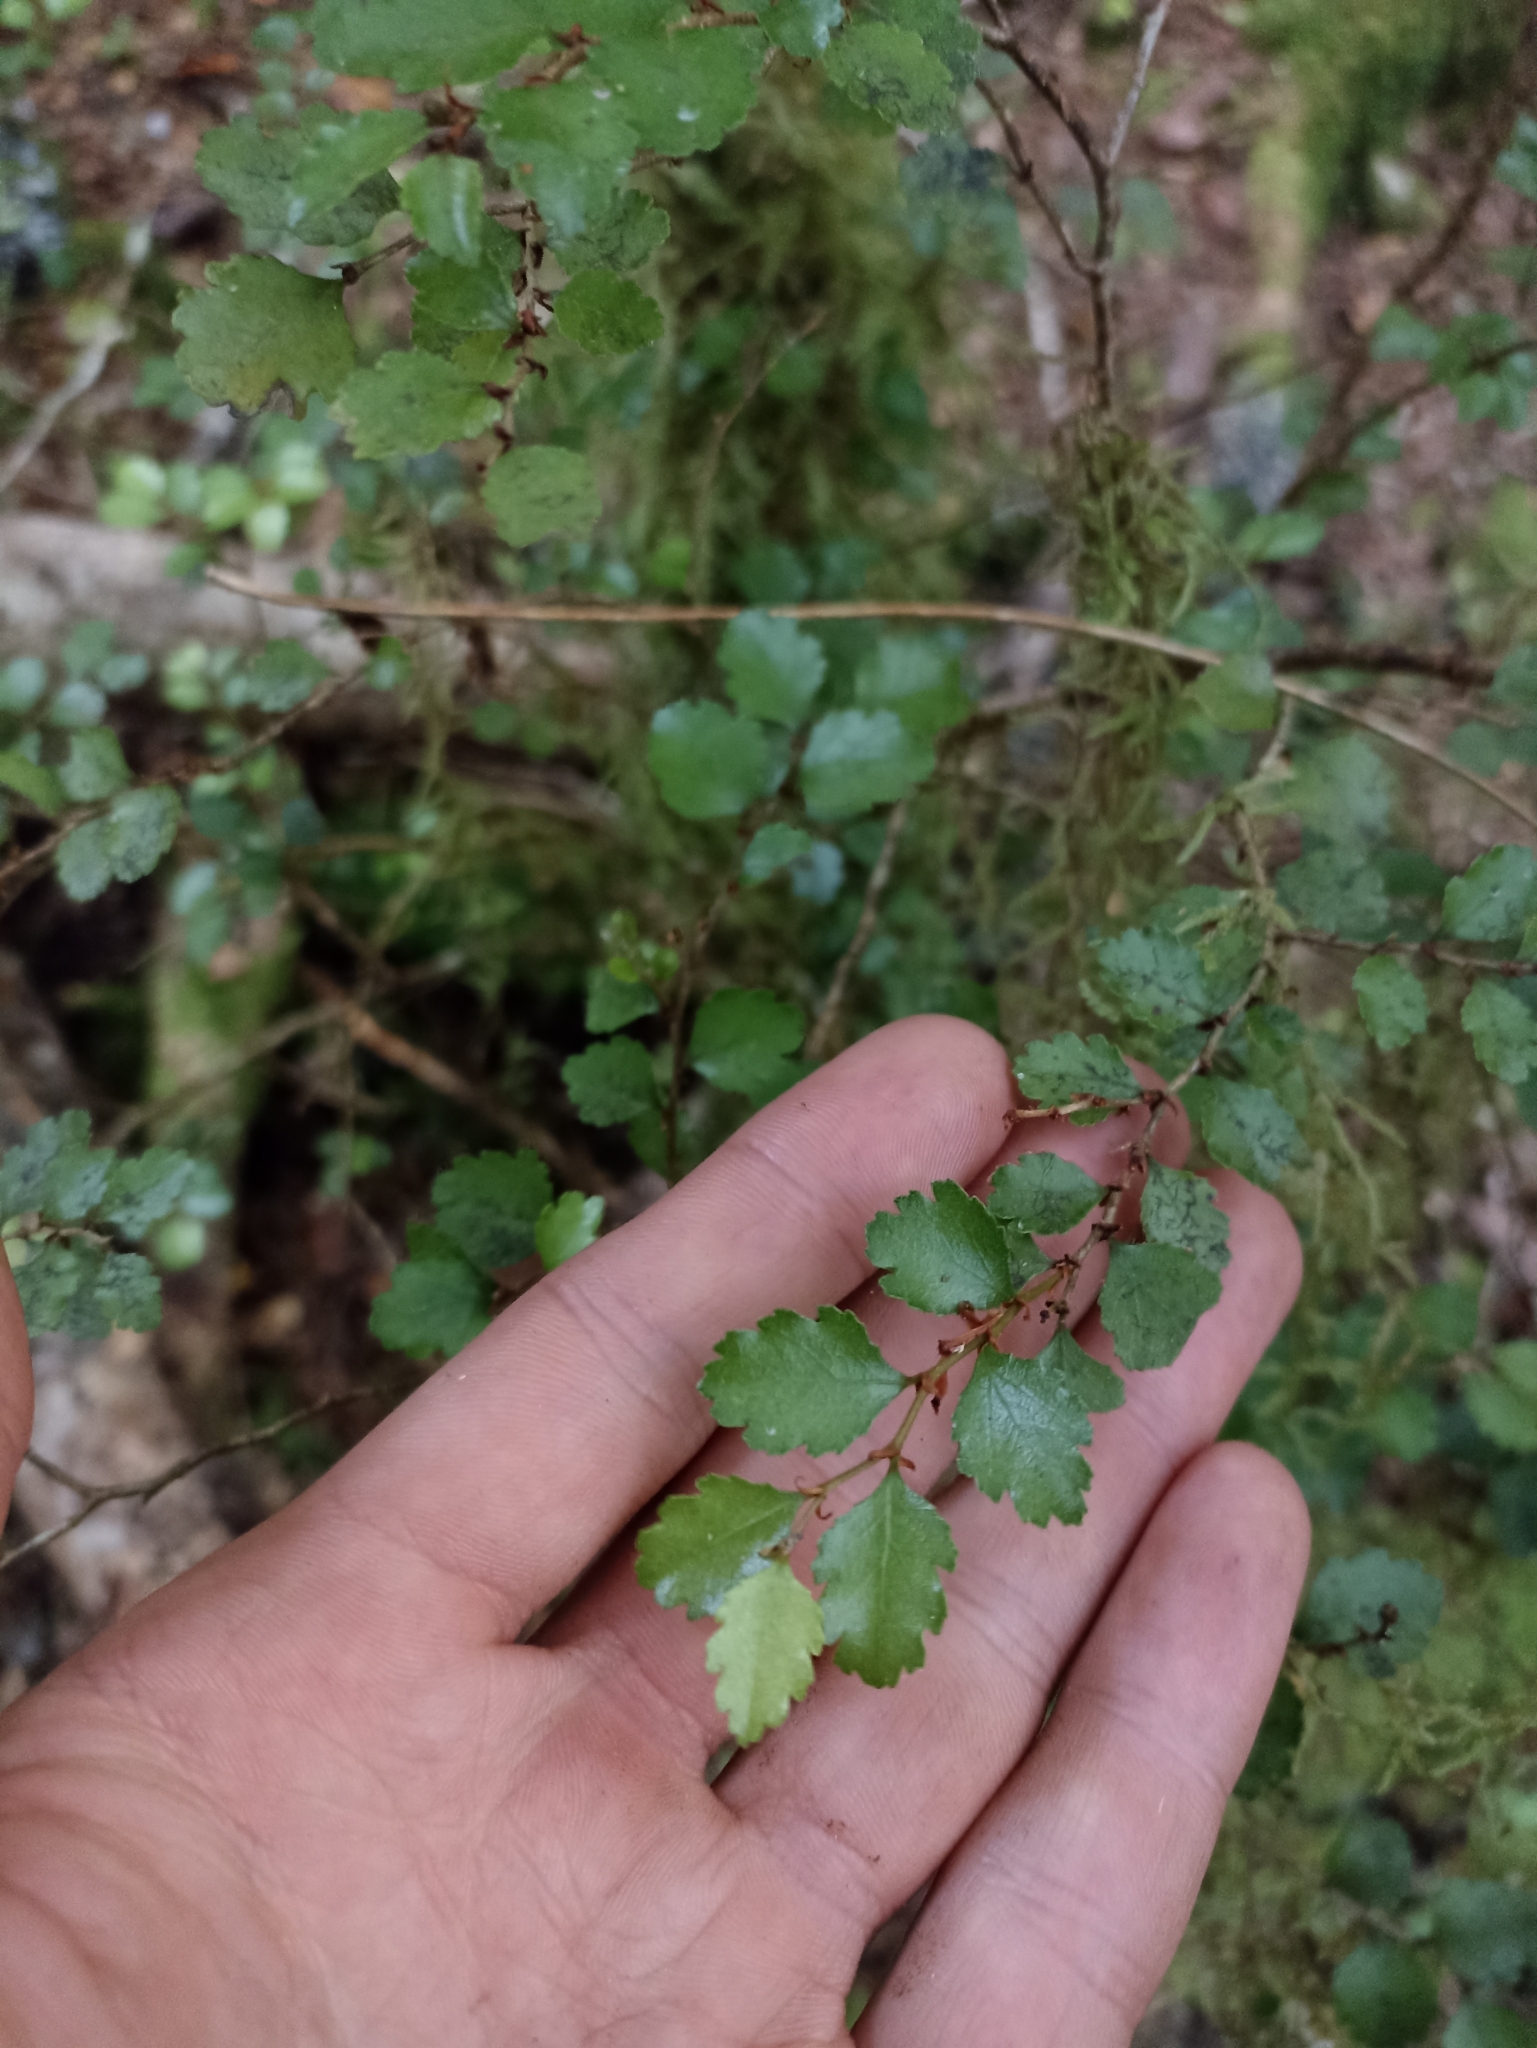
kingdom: Plantae
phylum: Tracheophyta
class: Magnoliopsida
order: Fagales
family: Nothofagaceae
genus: Nothofagus
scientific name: Nothofagus menziesii
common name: Silver beech
